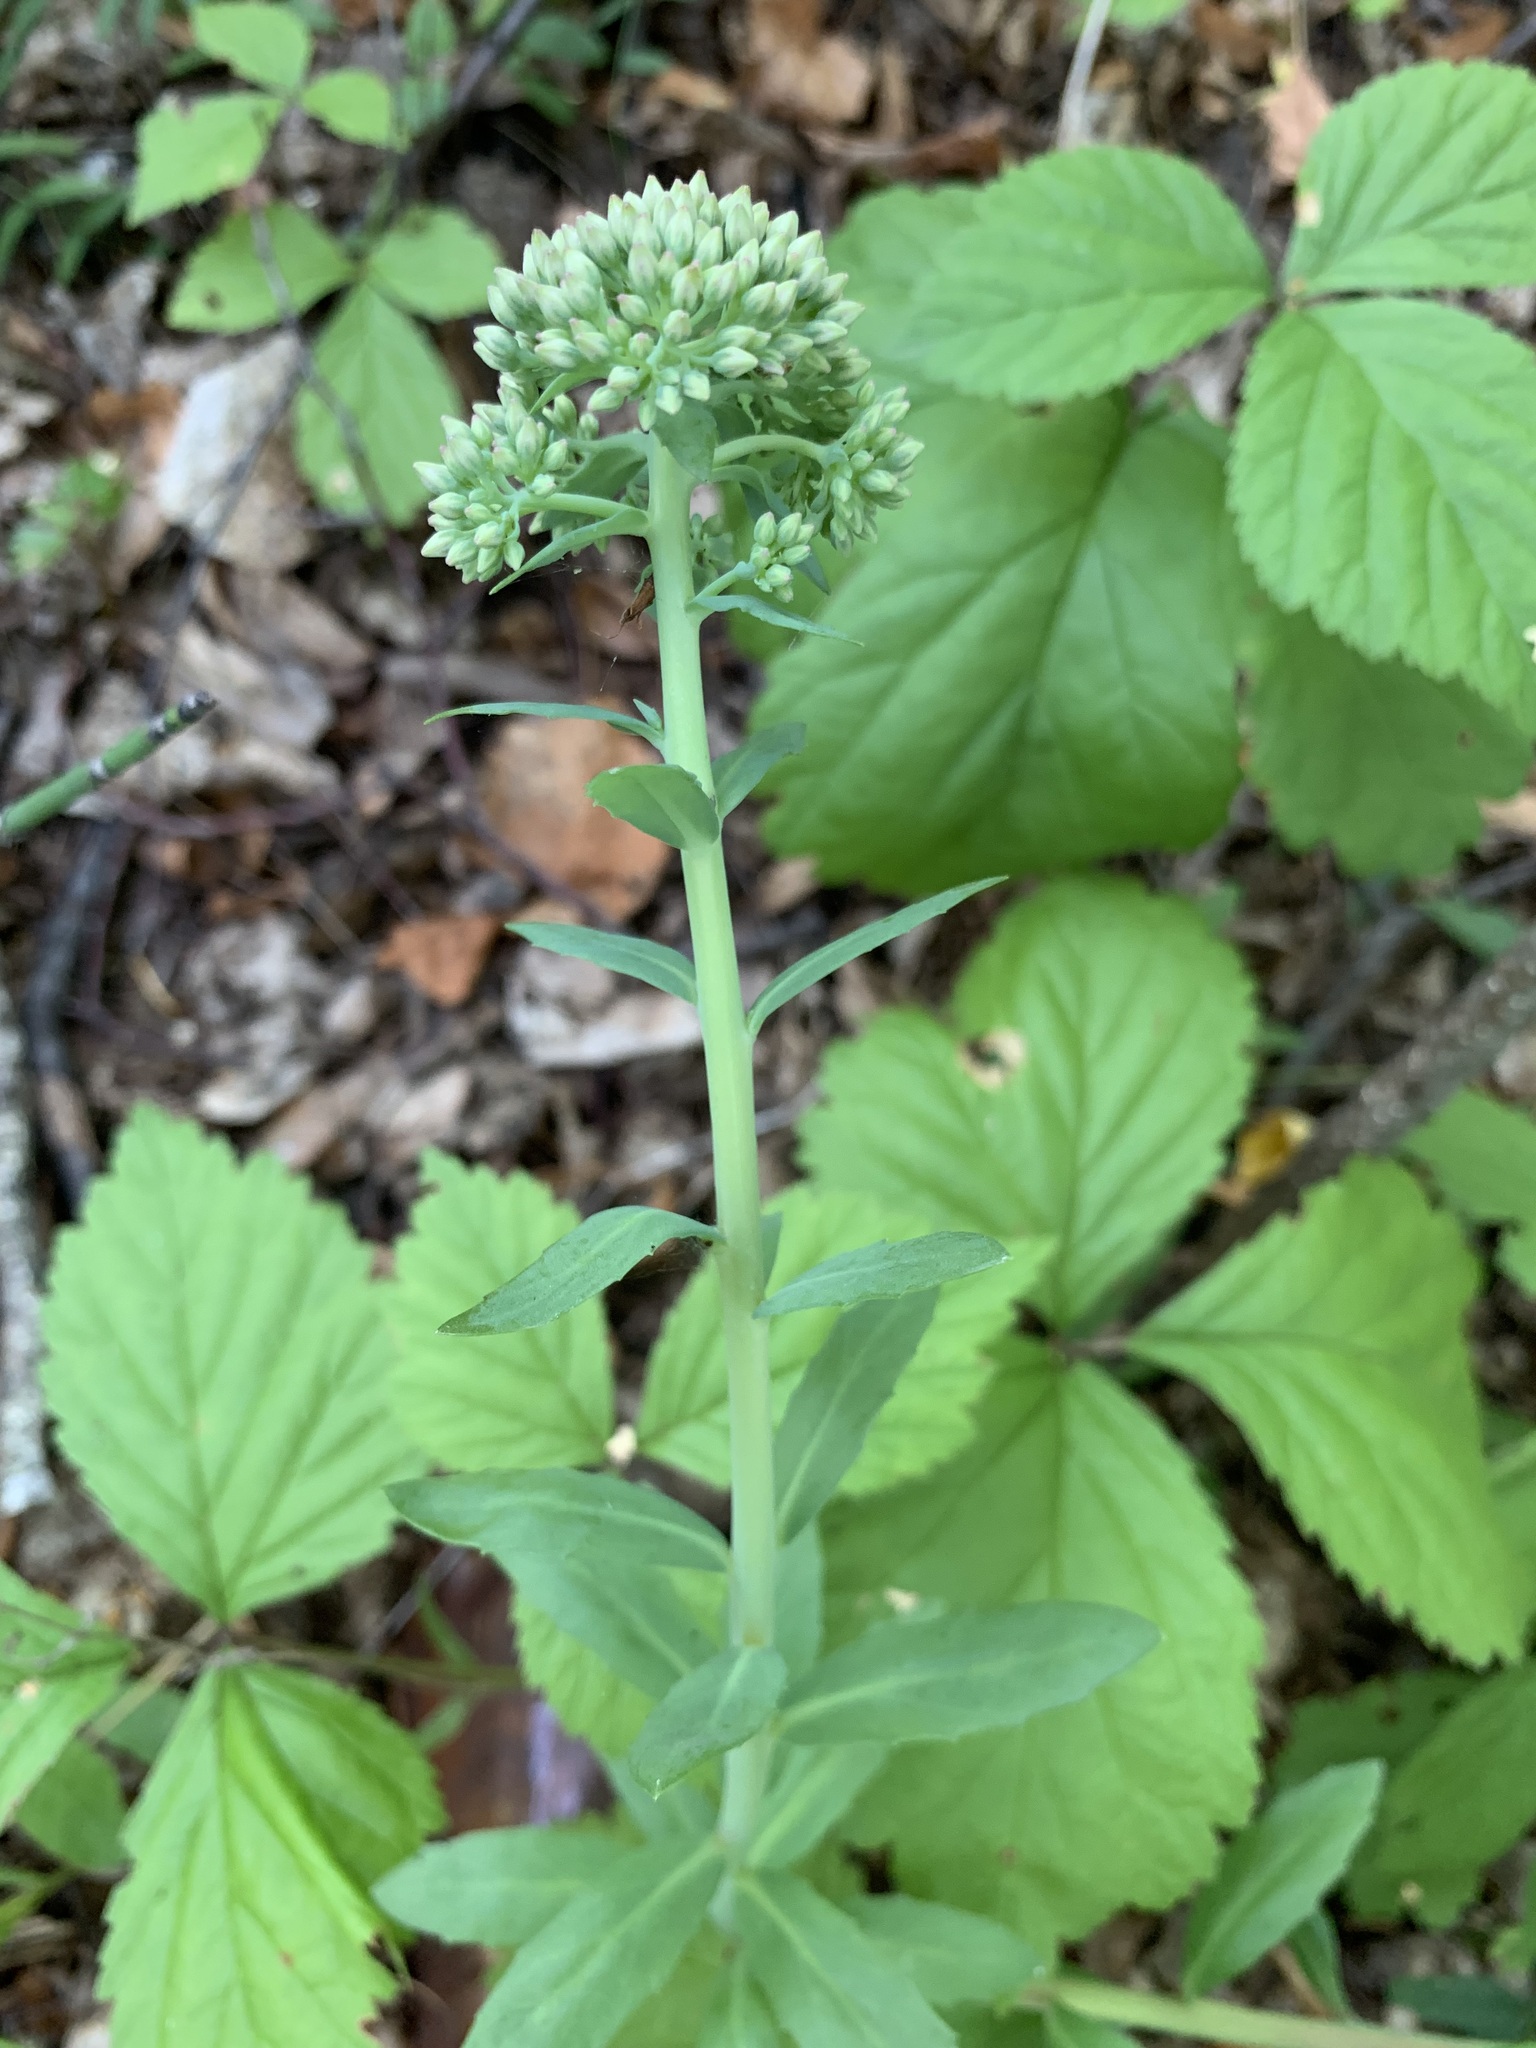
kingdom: Plantae
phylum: Tracheophyta
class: Magnoliopsida
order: Saxifragales
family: Crassulaceae
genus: Hylotelephium
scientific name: Hylotelephium telephium
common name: Live-forever
